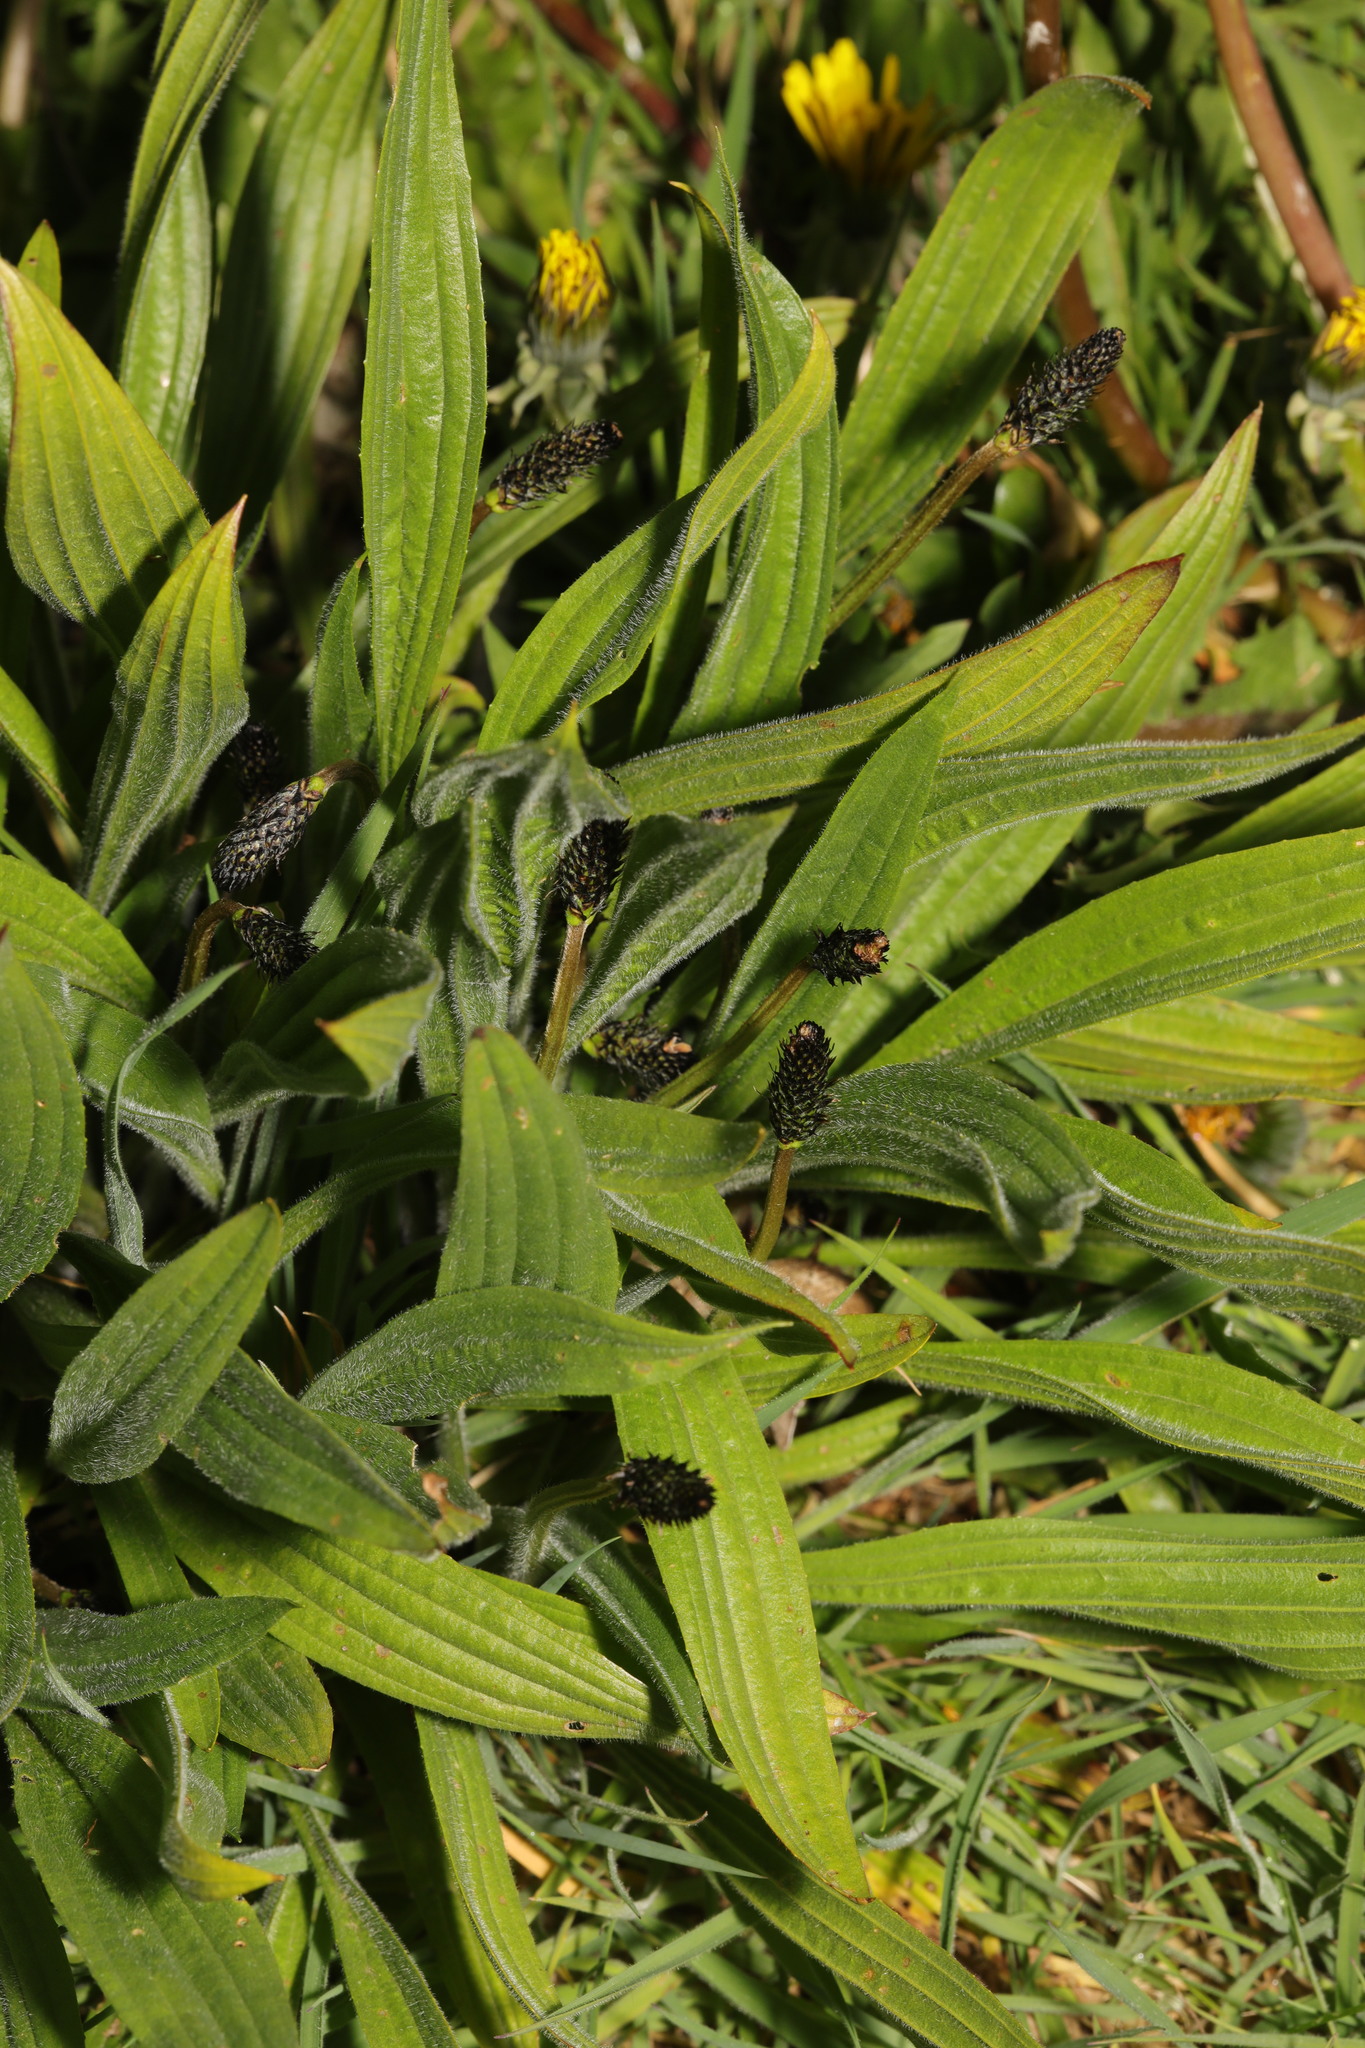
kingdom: Plantae
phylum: Tracheophyta
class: Magnoliopsida
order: Lamiales
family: Plantaginaceae
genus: Plantago
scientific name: Plantago lanceolata
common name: Ribwort plantain
